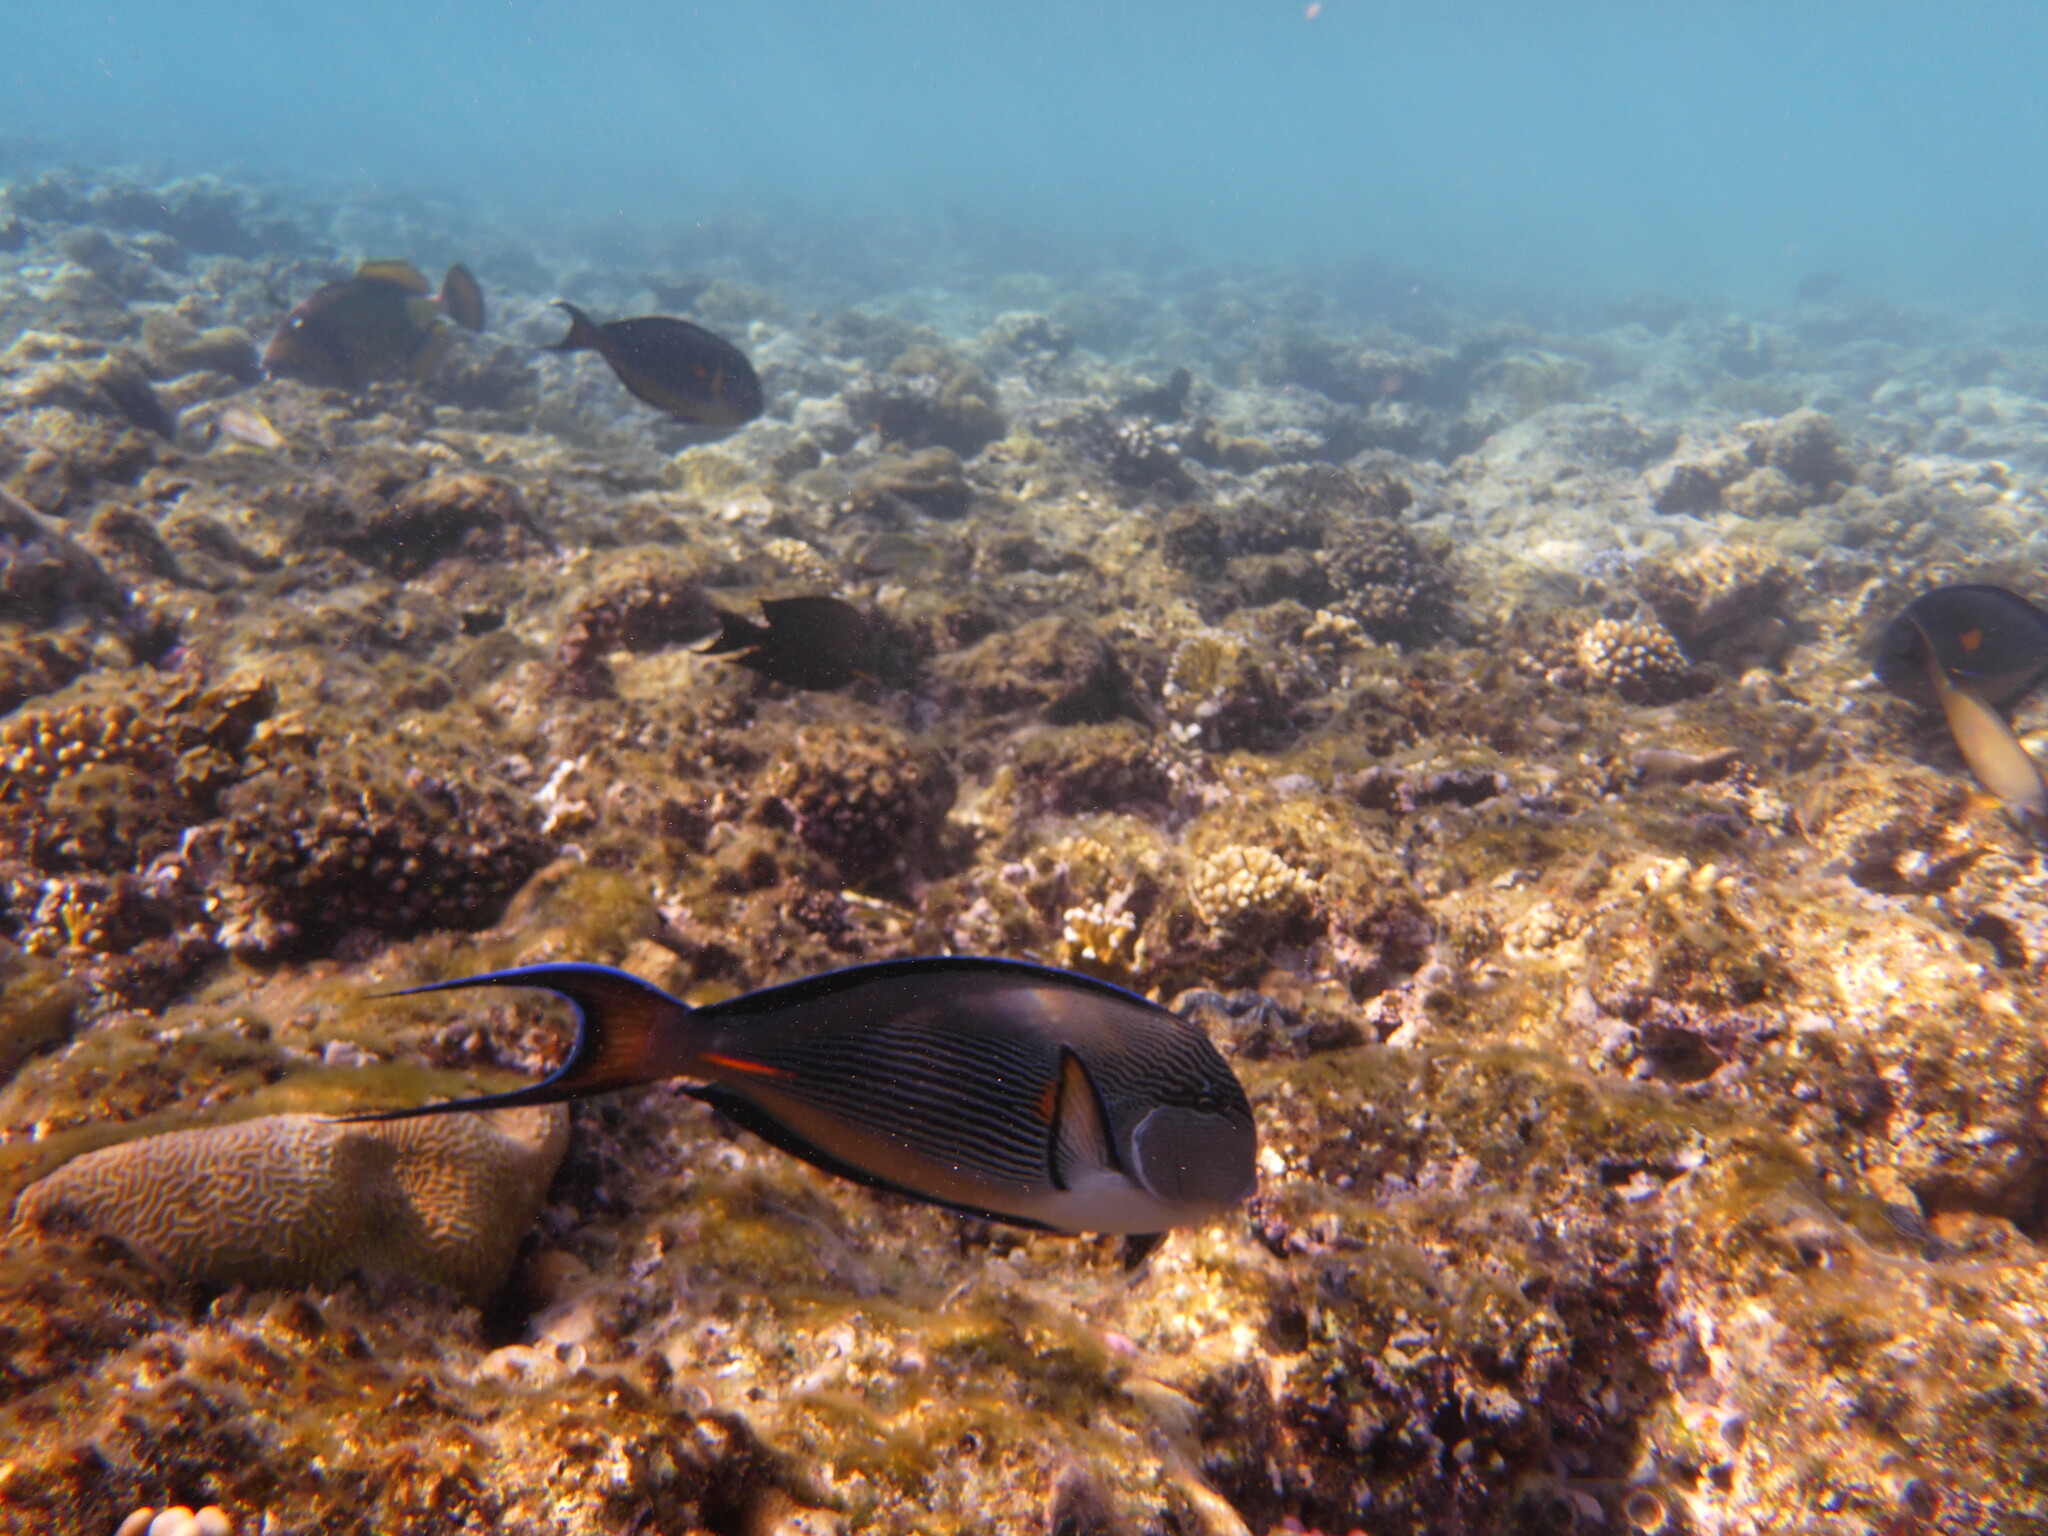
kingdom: Animalia
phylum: Chordata
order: Perciformes
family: Acanthuridae
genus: Acanthurus
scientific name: Acanthurus sohal
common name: Red sea surgeonfish
